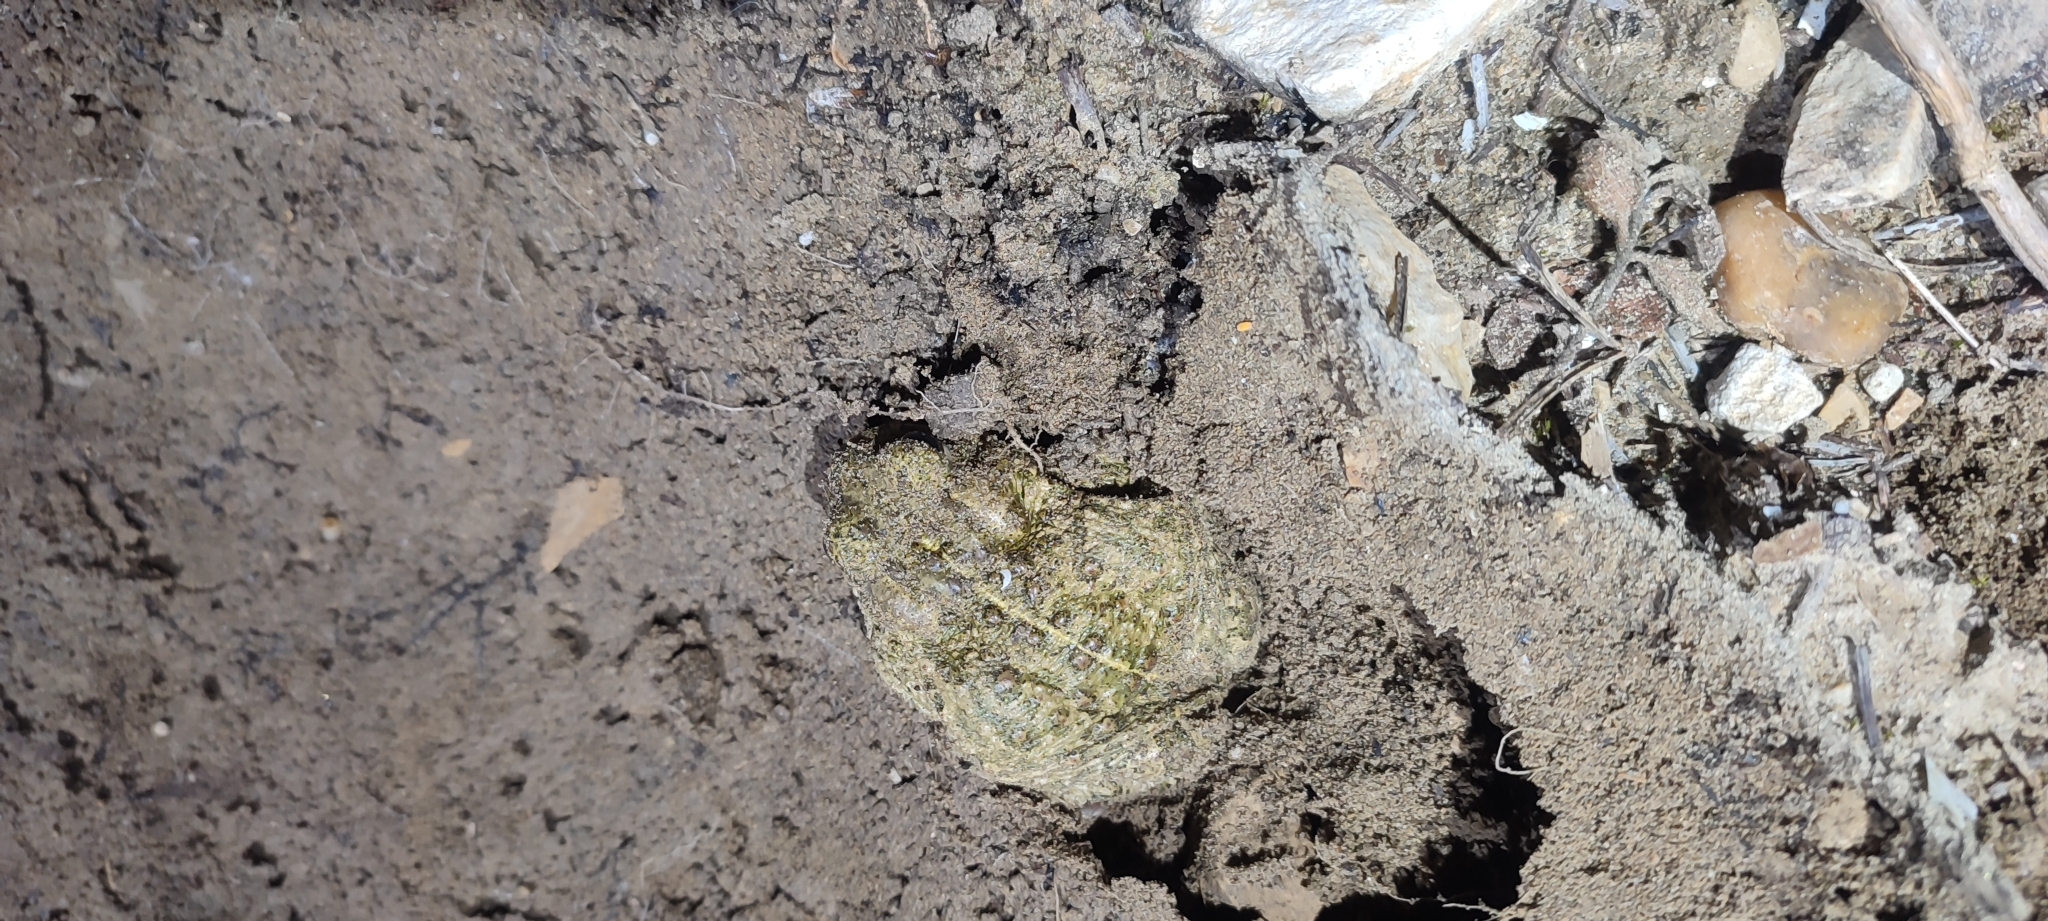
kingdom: Animalia
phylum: Chordata
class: Amphibia
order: Anura
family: Bufonidae
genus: Epidalea
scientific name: Epidalea calamita
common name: Natterjack toad
